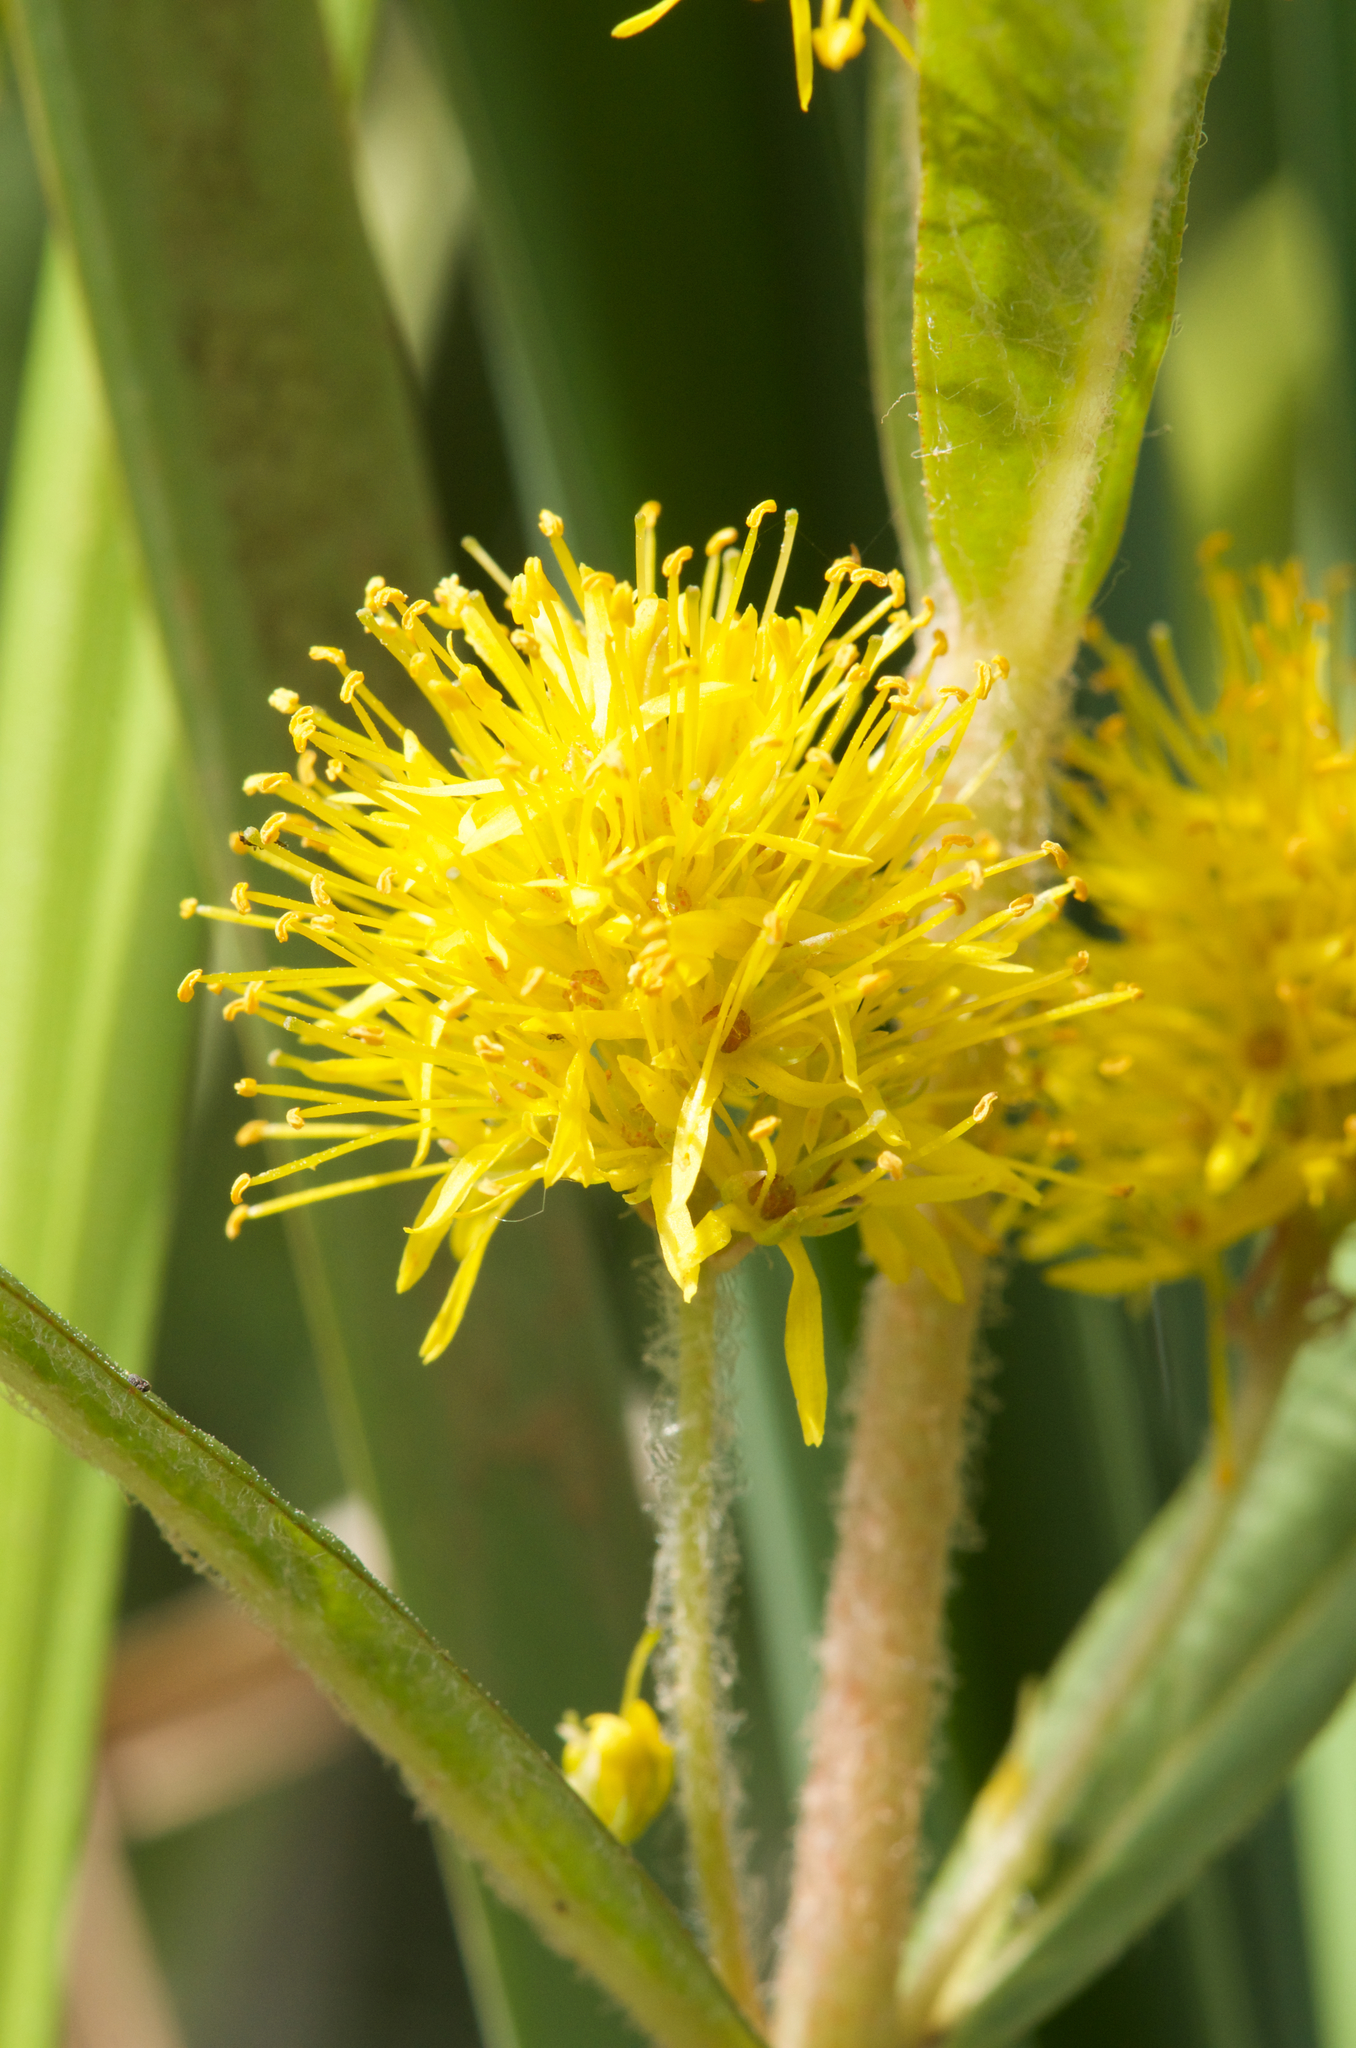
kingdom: Plantae
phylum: Tracheophyta
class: Magnoliopsida
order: Ericales
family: Primulaceae
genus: Lysimachia
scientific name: Lysimachia thyrsiflora
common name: Tufted loosestrife
